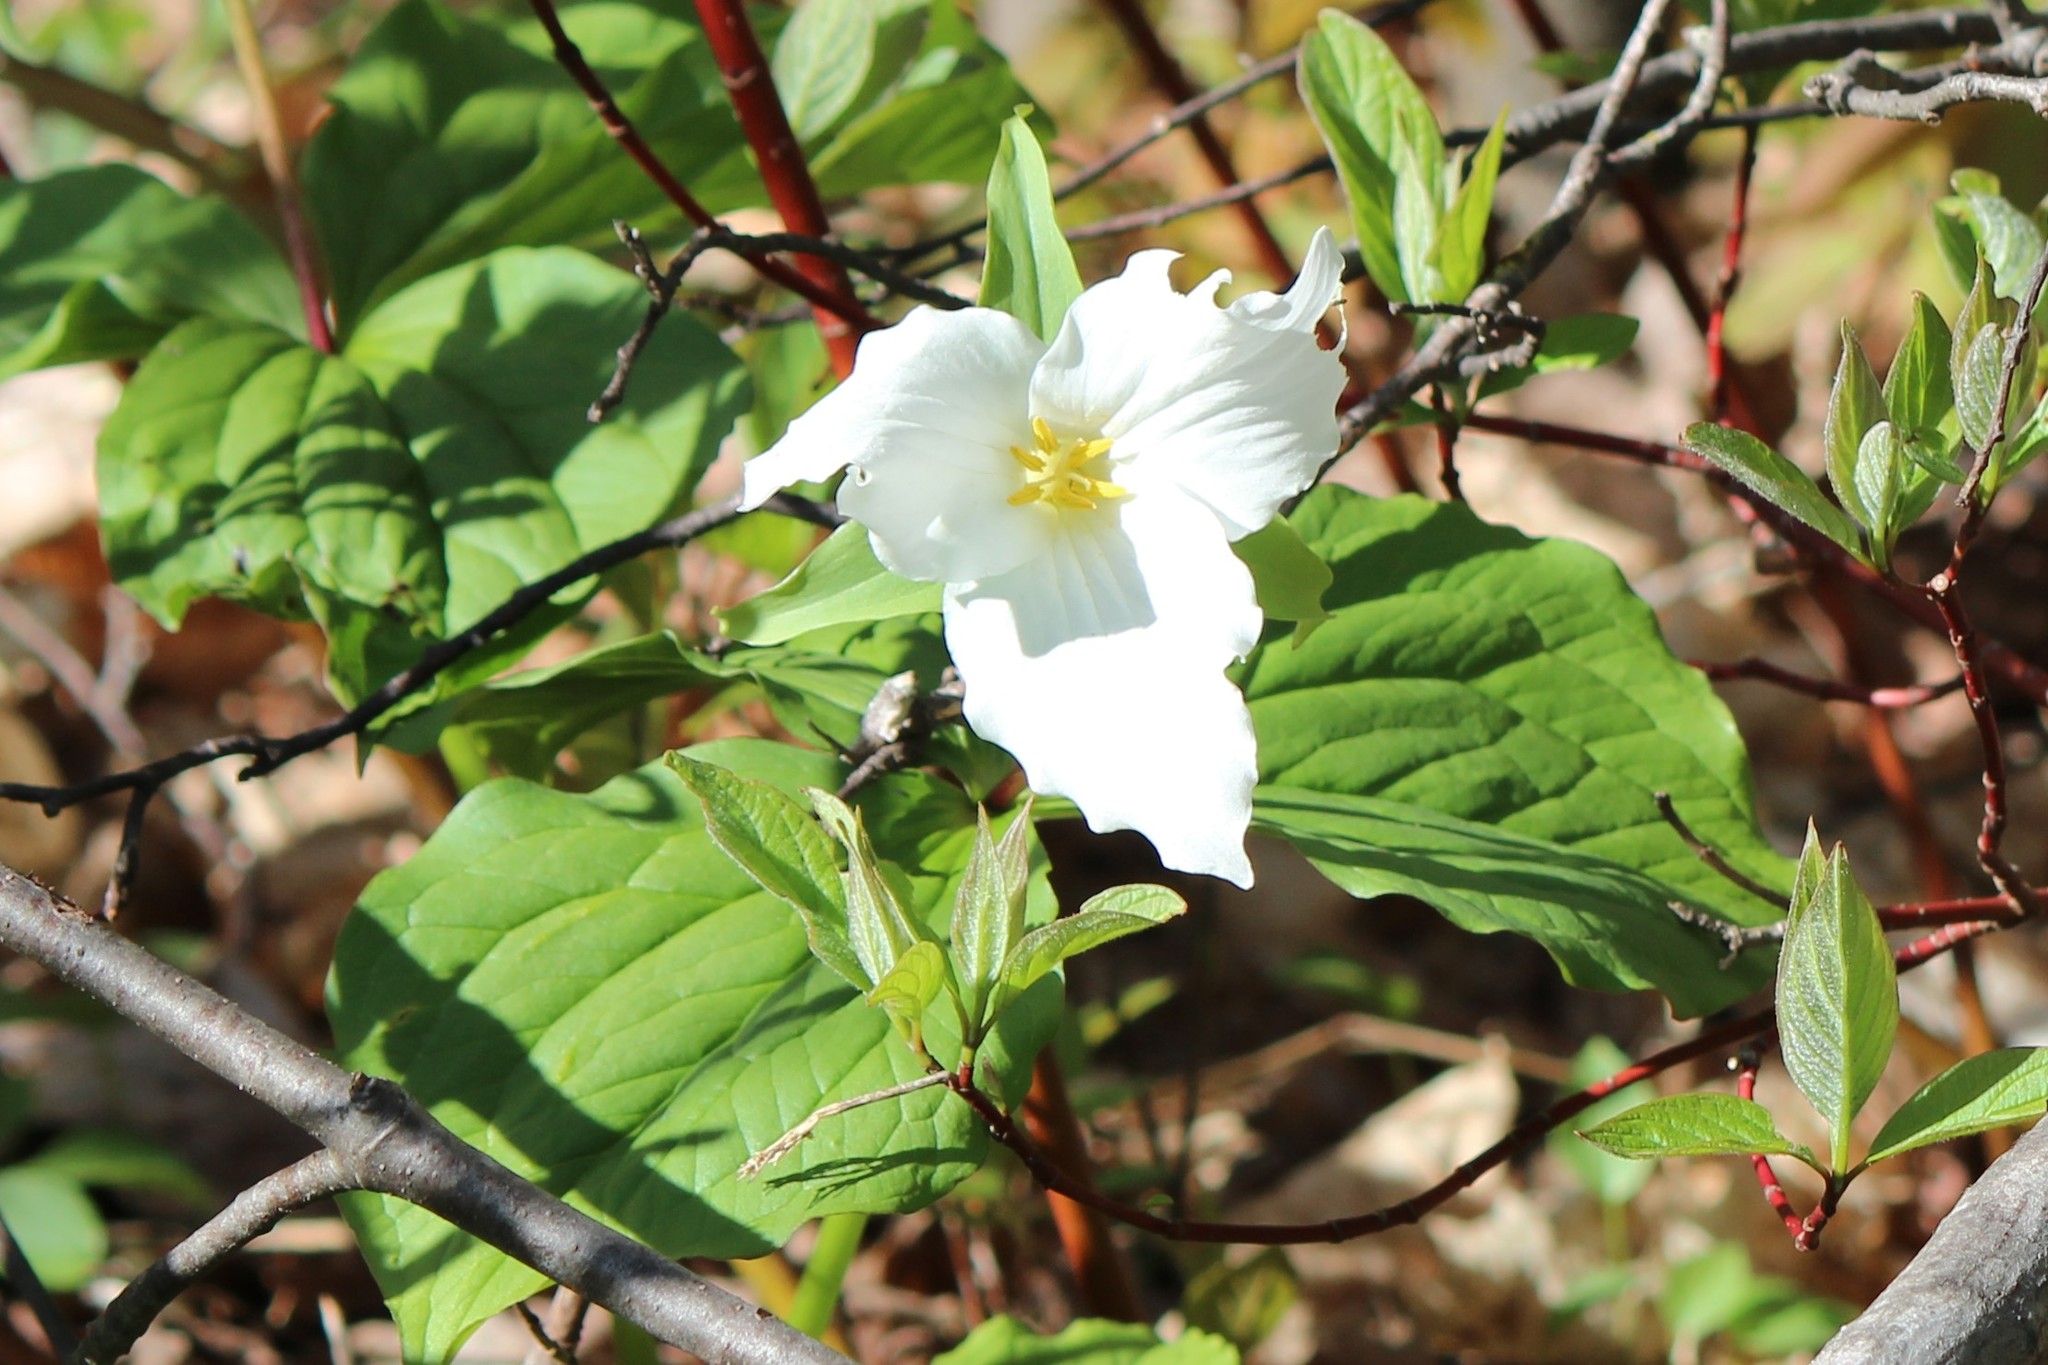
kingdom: Plantae
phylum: Tracheophyta
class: Liliopsida
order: Liliales
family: Melanthiaceae
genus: Trillium
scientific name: Trillium grandiflorum
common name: Great white trillium
